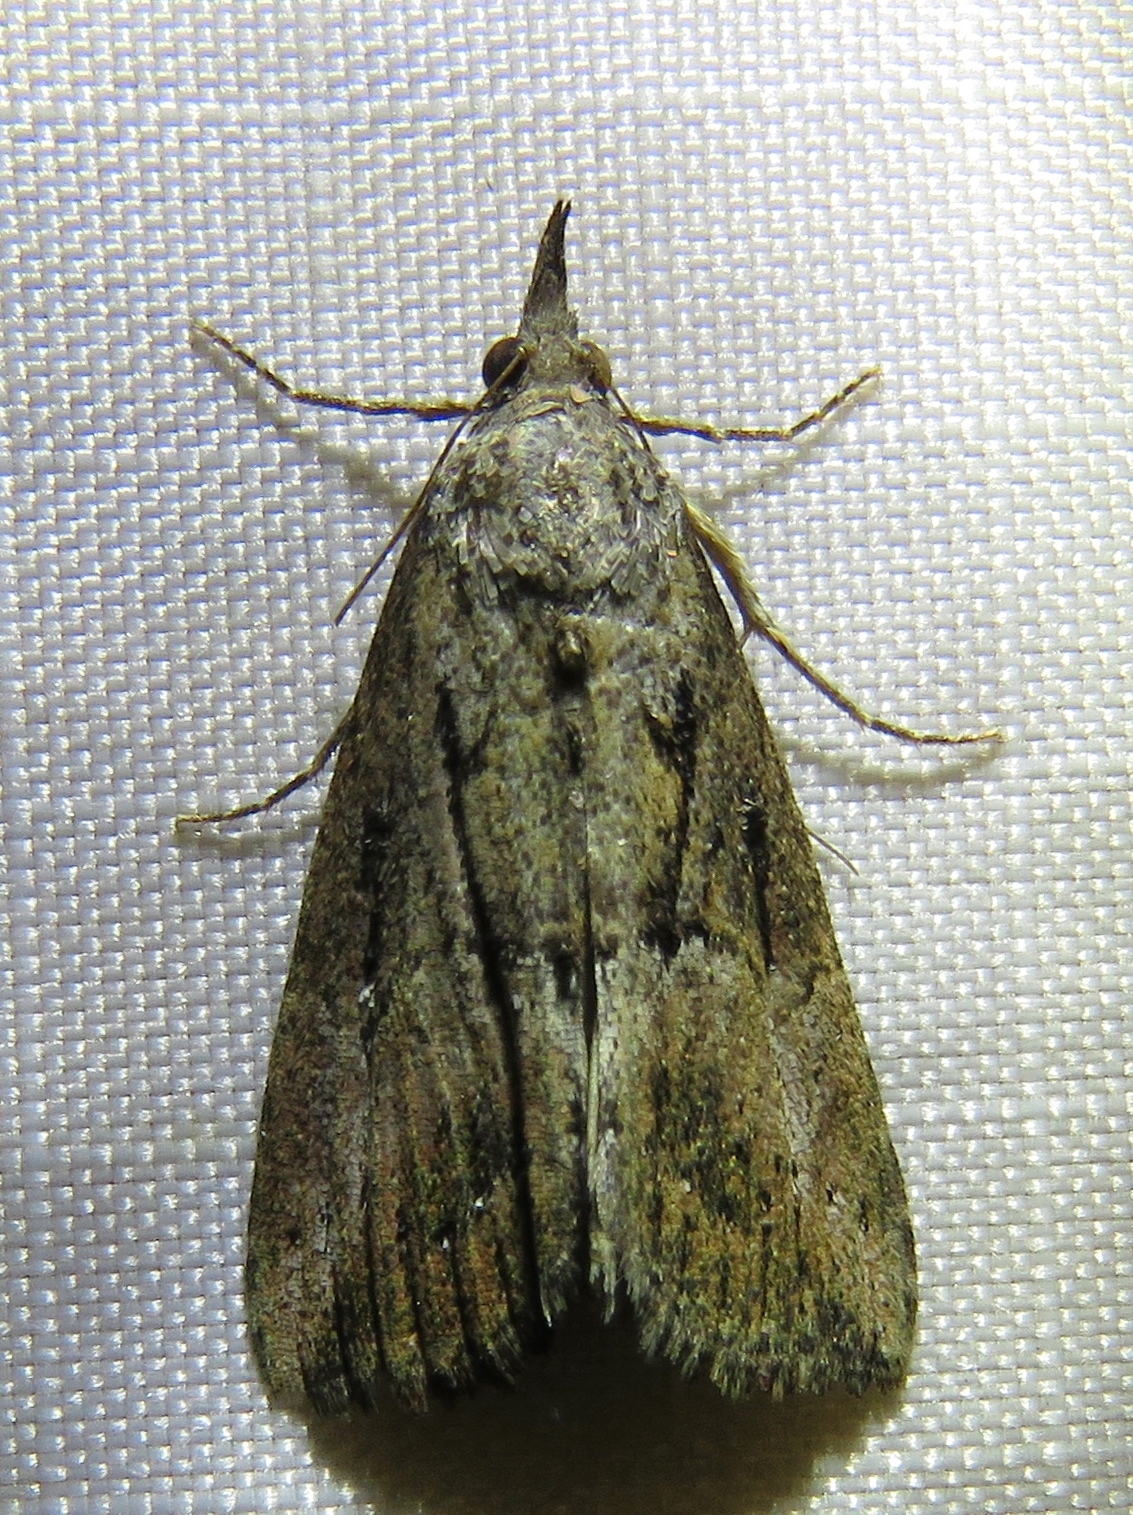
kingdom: Animalia
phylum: Arthropoda
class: Insecta
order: Lepidoptera
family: Erebidae
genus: Hypena
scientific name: Hypena scabra
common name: Green cloverworm
